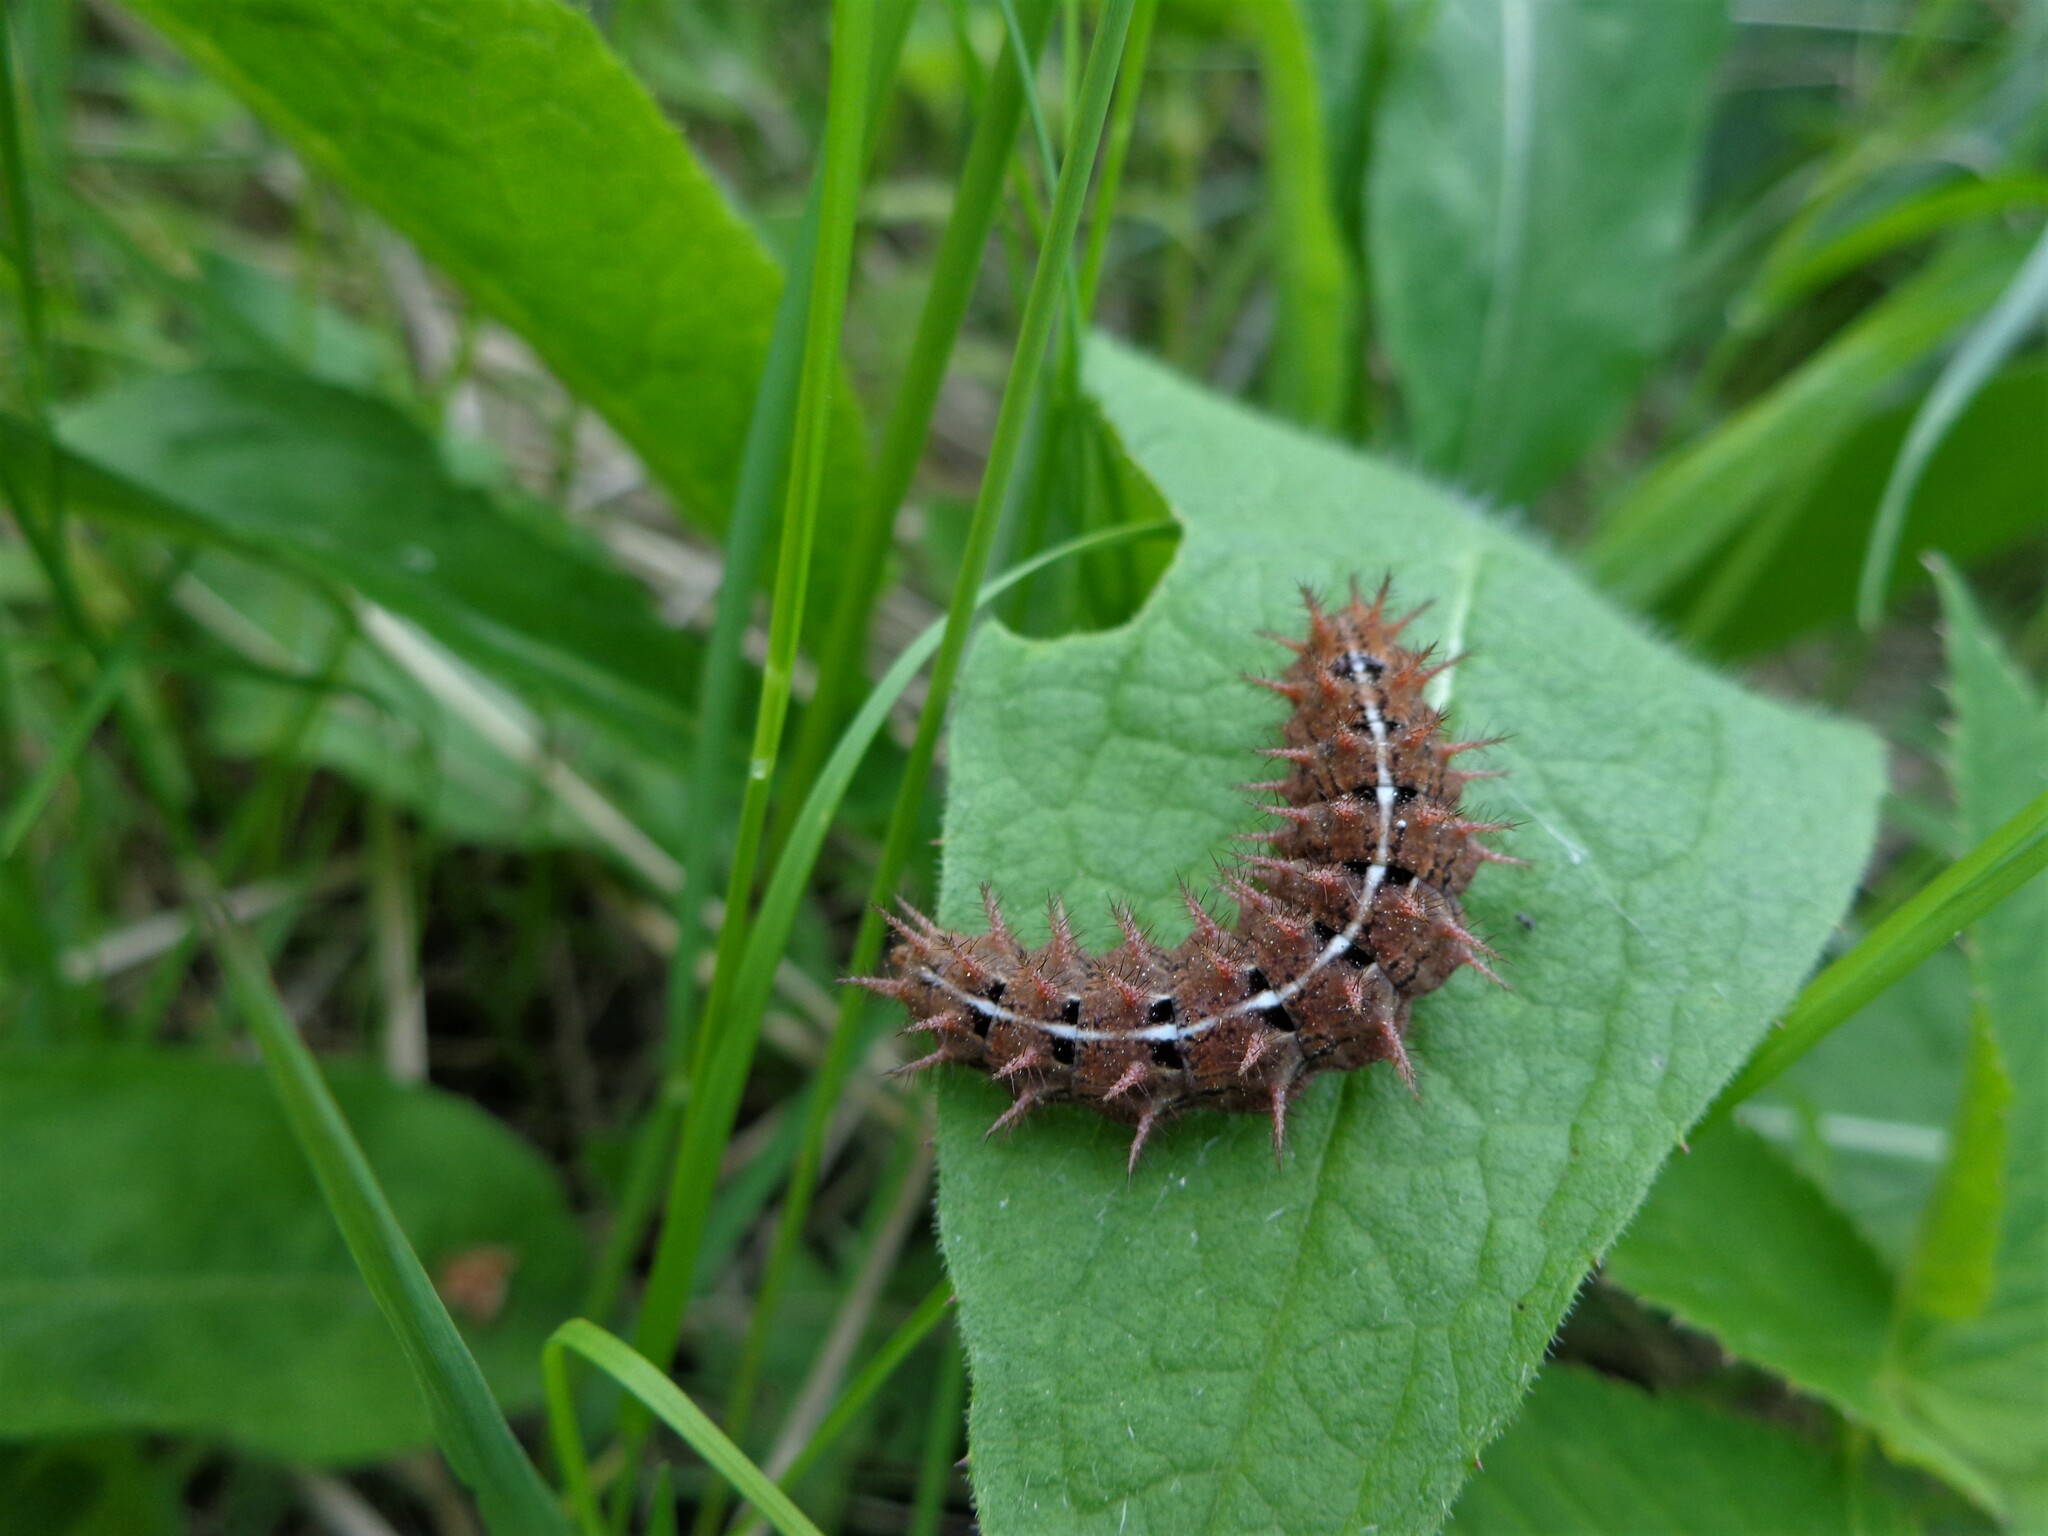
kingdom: Animalia
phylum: Arthropoda
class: Insecta
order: Lepidoptera
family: Nymphalidae
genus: Fabriciana
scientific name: Fabriciana adippe
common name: High brown fritillary
